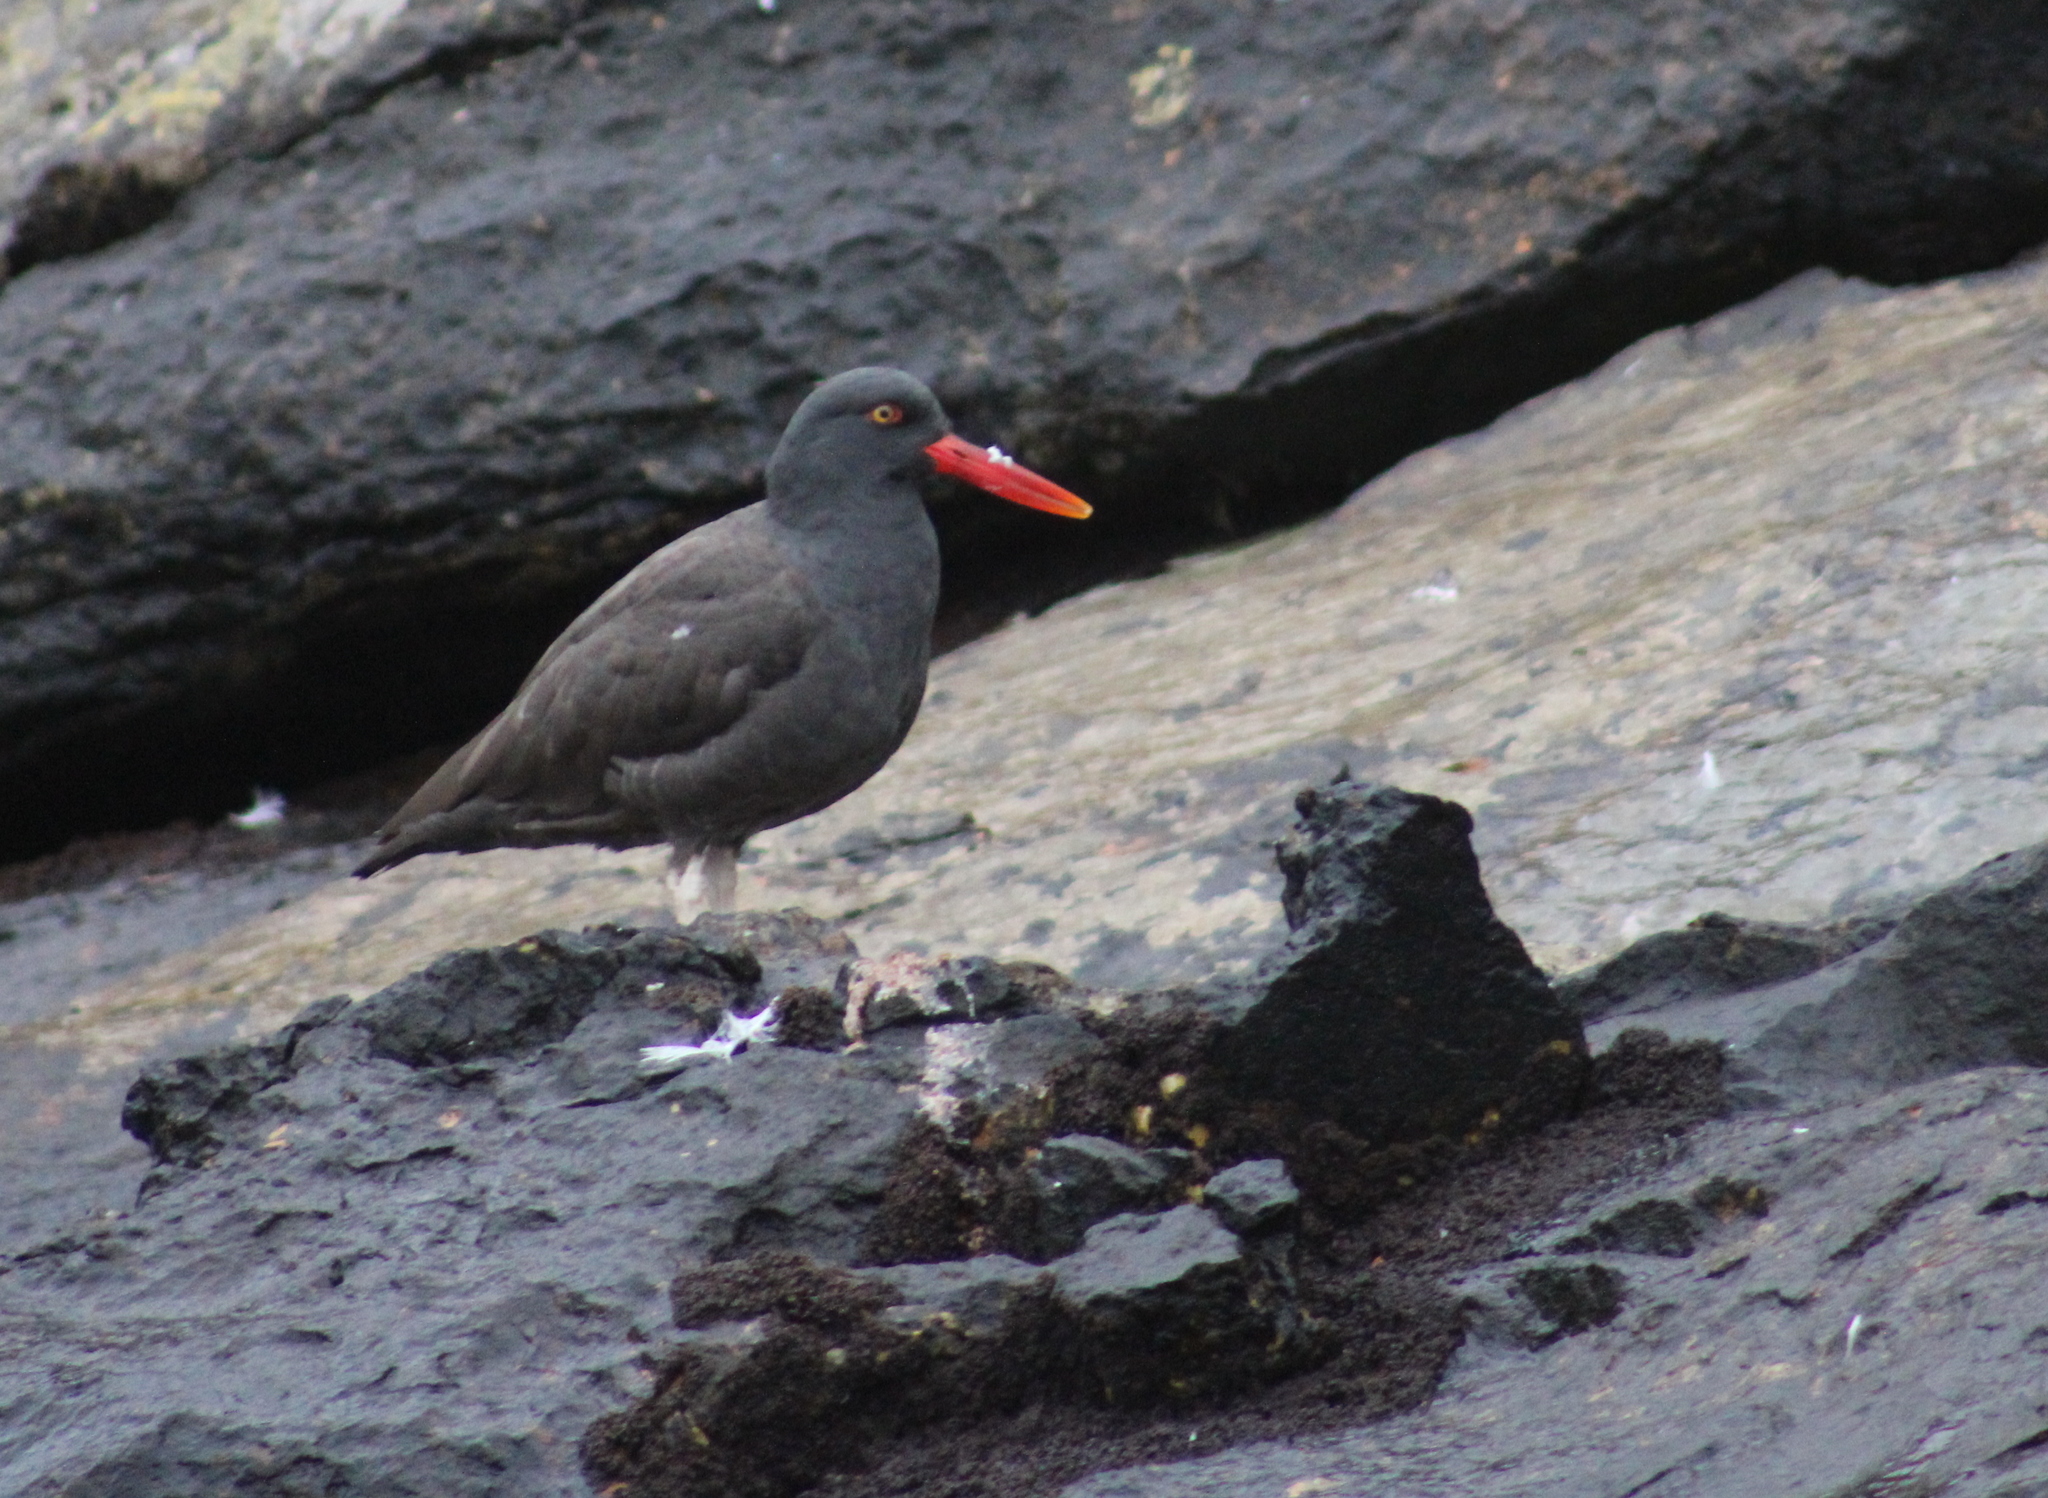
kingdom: Animalia
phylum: Chordata
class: Aves
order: Charadriiformes
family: Haematopodidae
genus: Haematopus
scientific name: Haematopus ater
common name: Blackish oystercatcher
